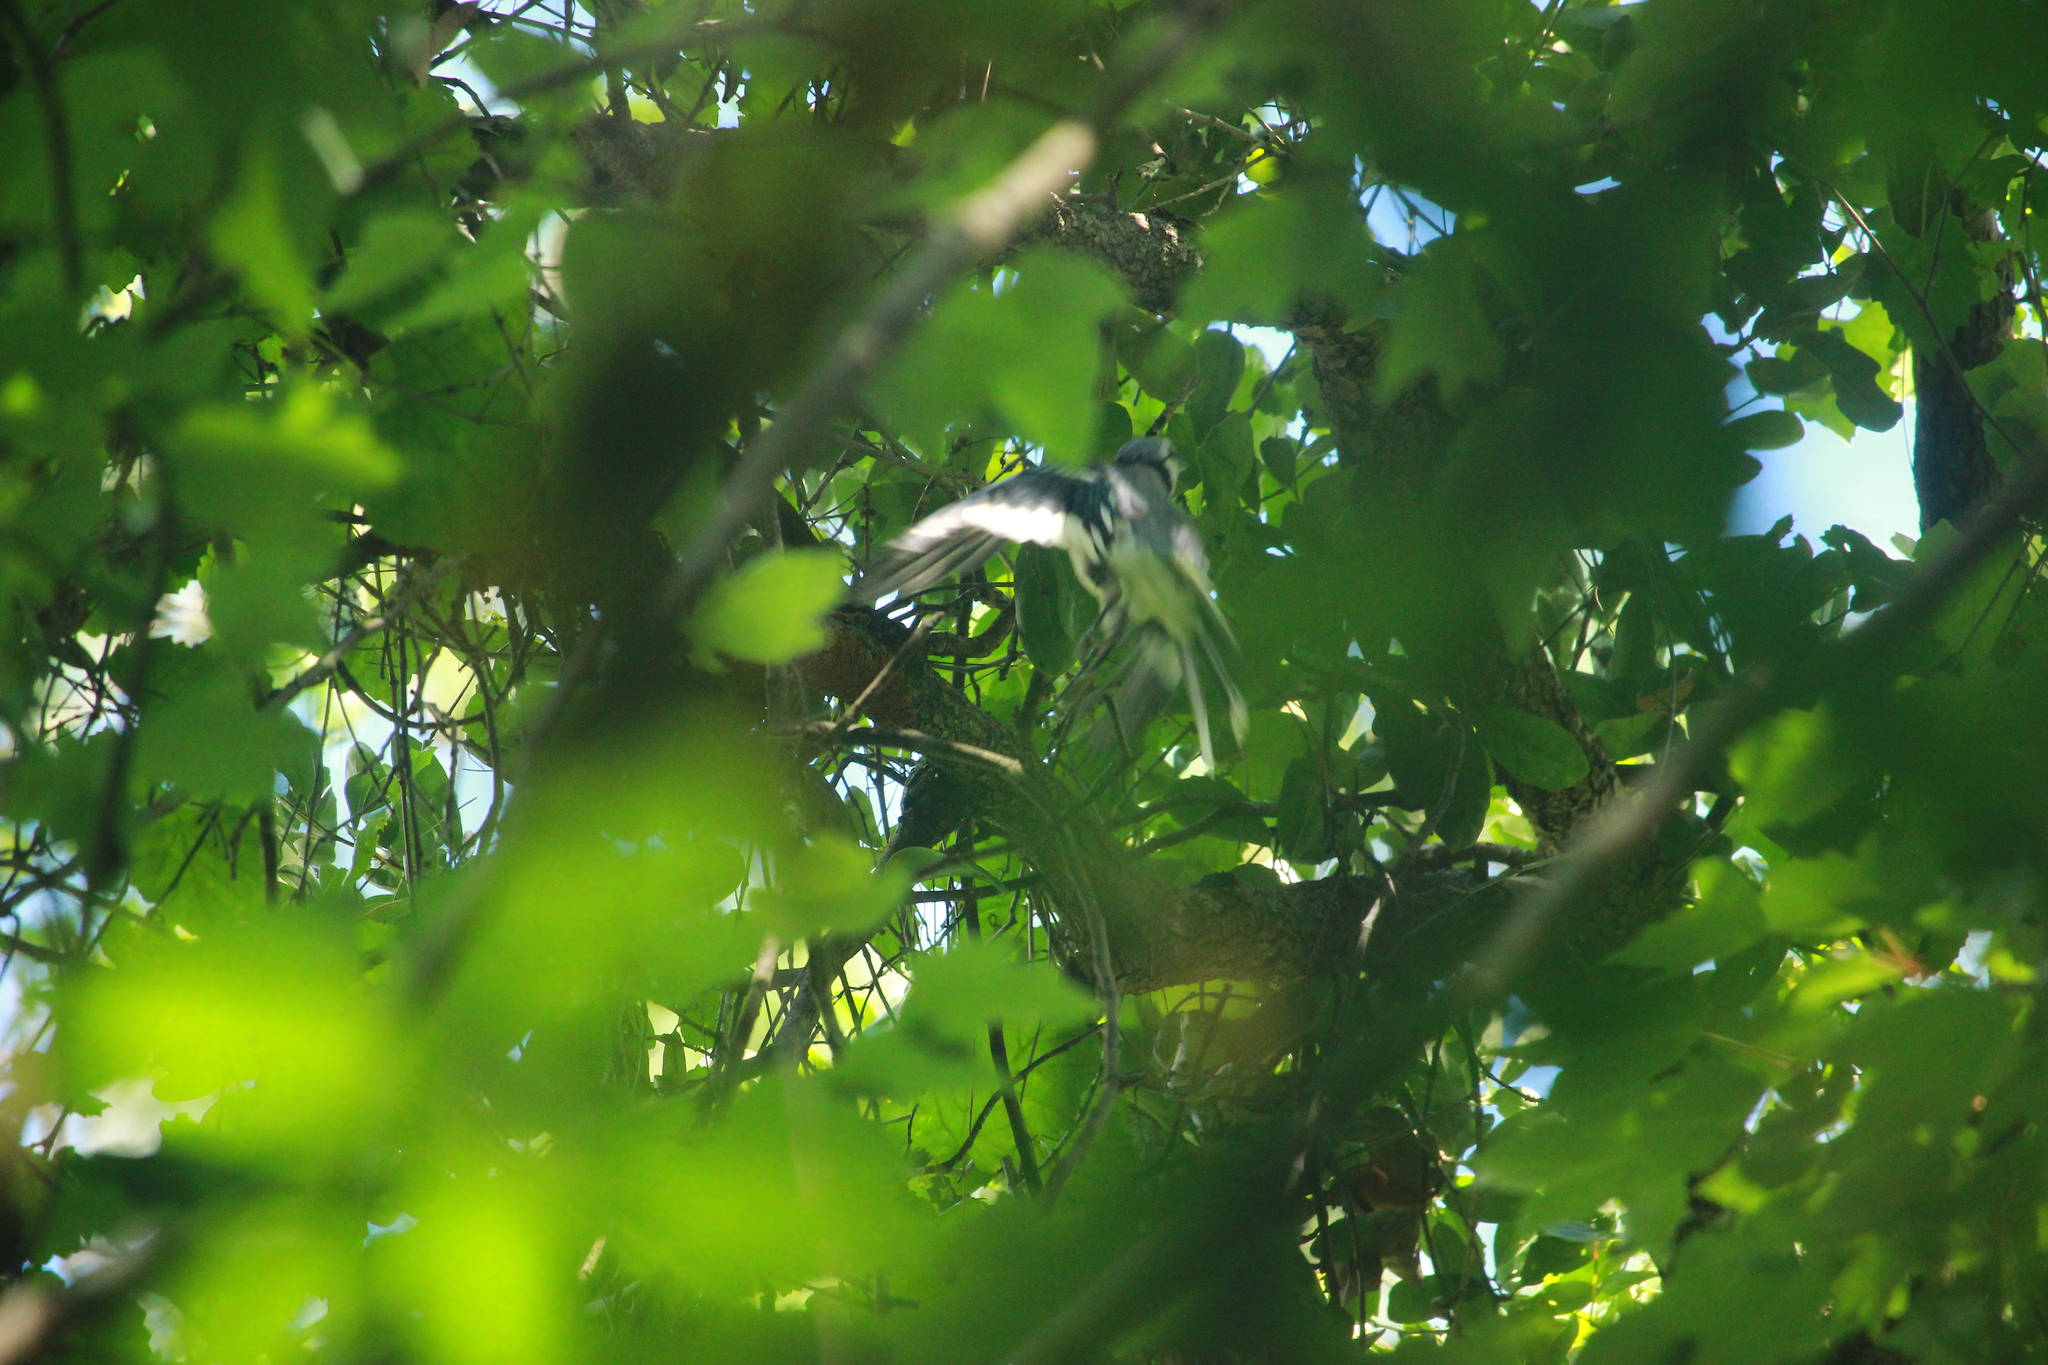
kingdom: Animalia
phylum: Chordata
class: Aves
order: Passeriformes
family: Corvidae
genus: Cyanocitta
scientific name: Cyanocitta cristata
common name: Blue jay
